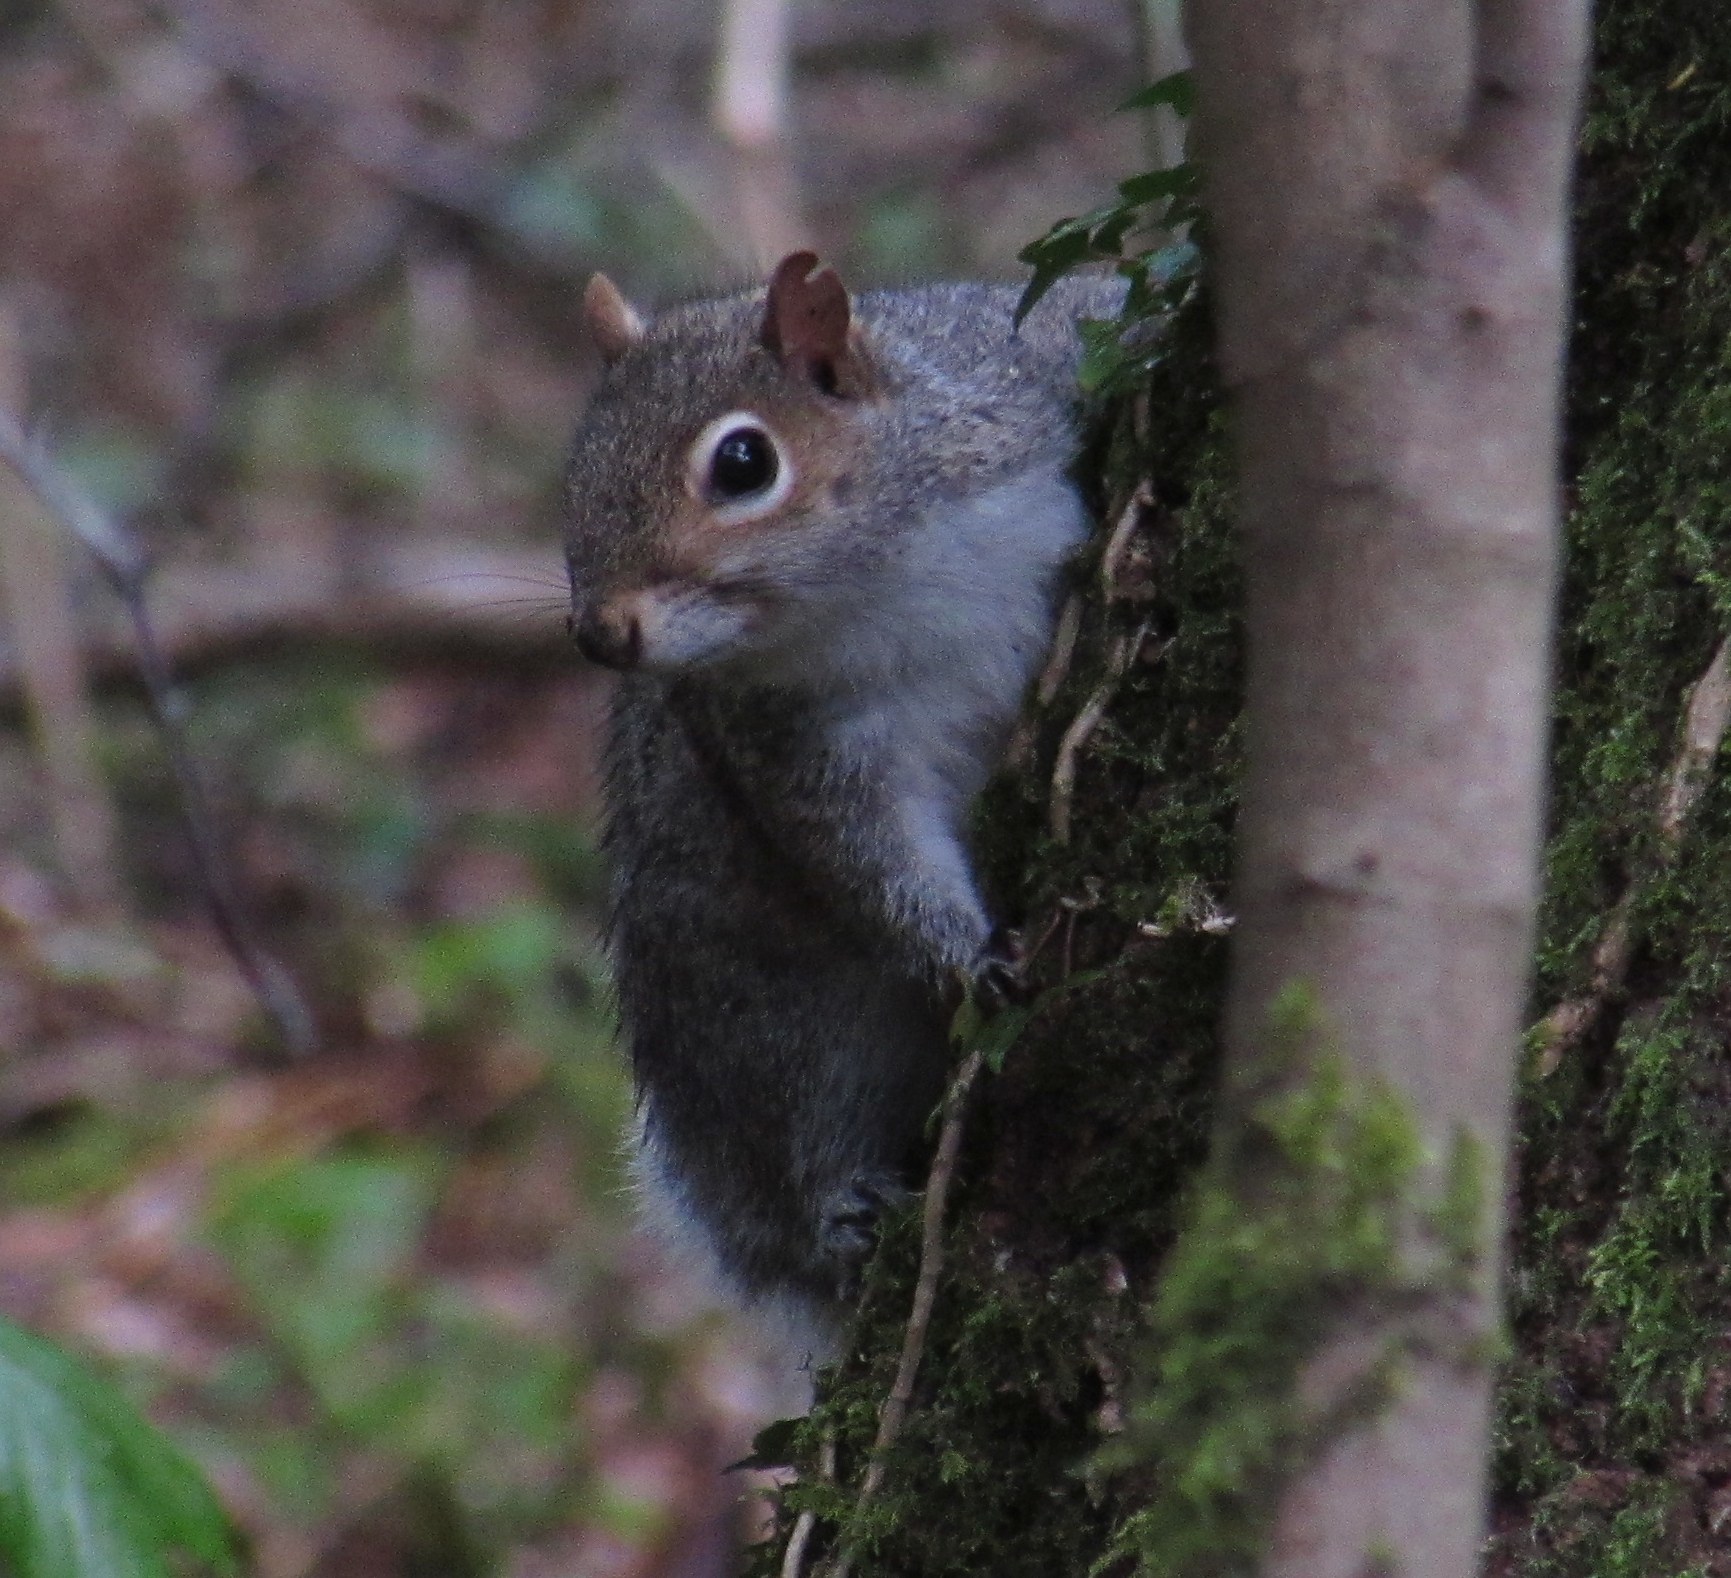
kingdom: Animalia
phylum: Chordata
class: Mammalia
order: Rodentia
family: Sciuridae
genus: Sciurus
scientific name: Sciurus carolinensis
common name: Eastern gray squirrel
